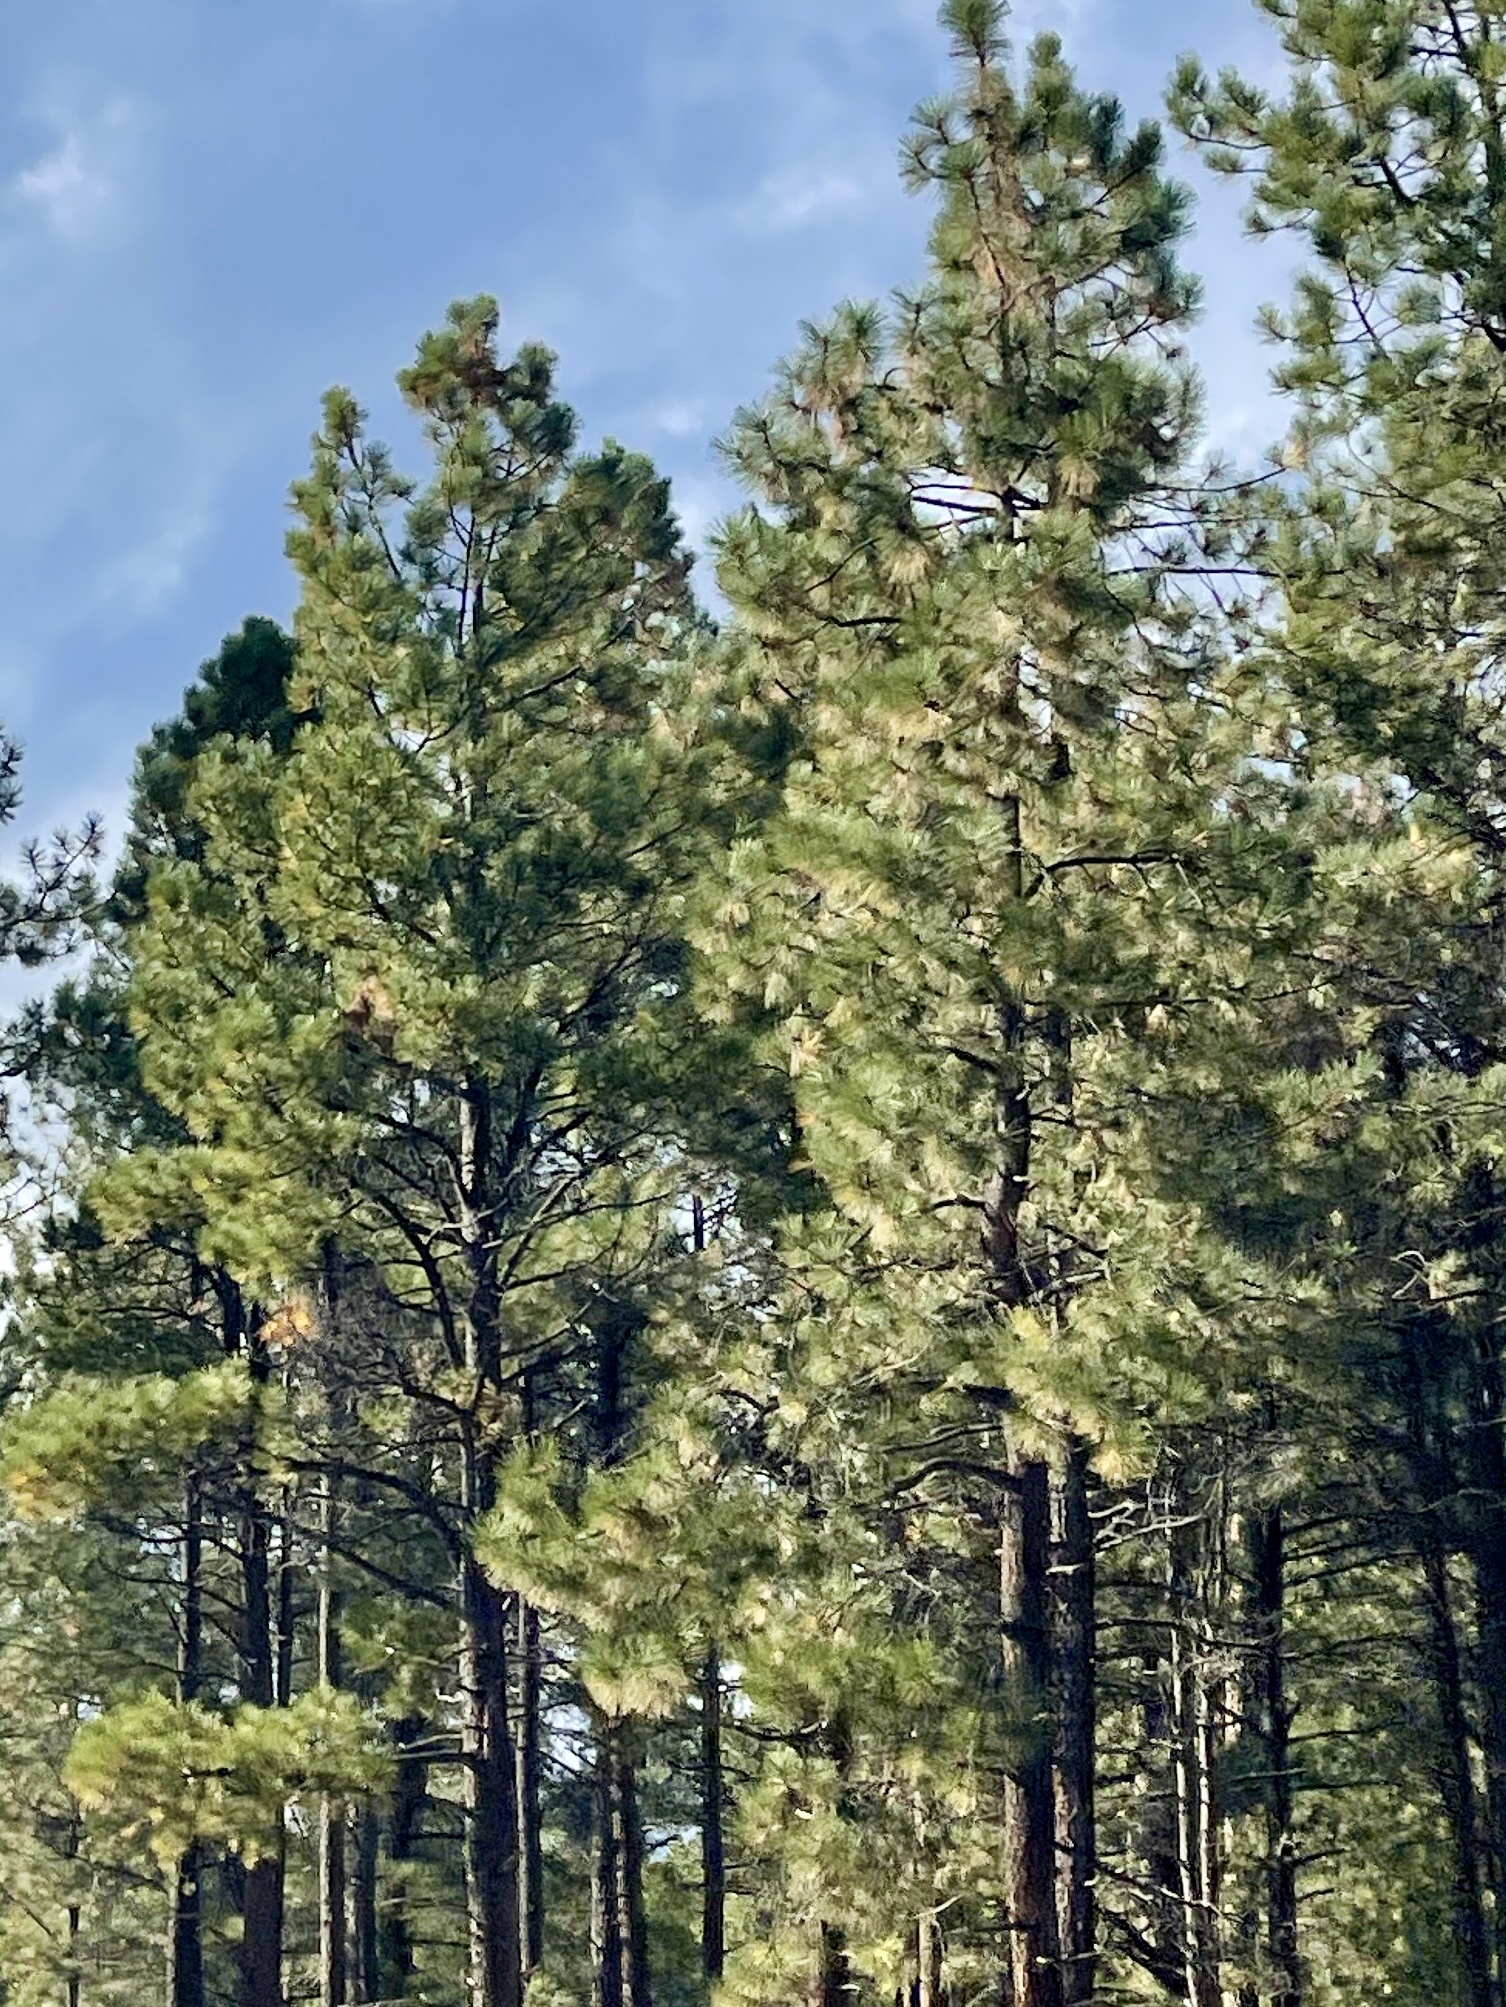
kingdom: Plantae
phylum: Tracheophyta
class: Pinopsida
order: Pinales
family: Pinaceae
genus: Pinus
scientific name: Pinus ponderosa
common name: Western yellow-pine
